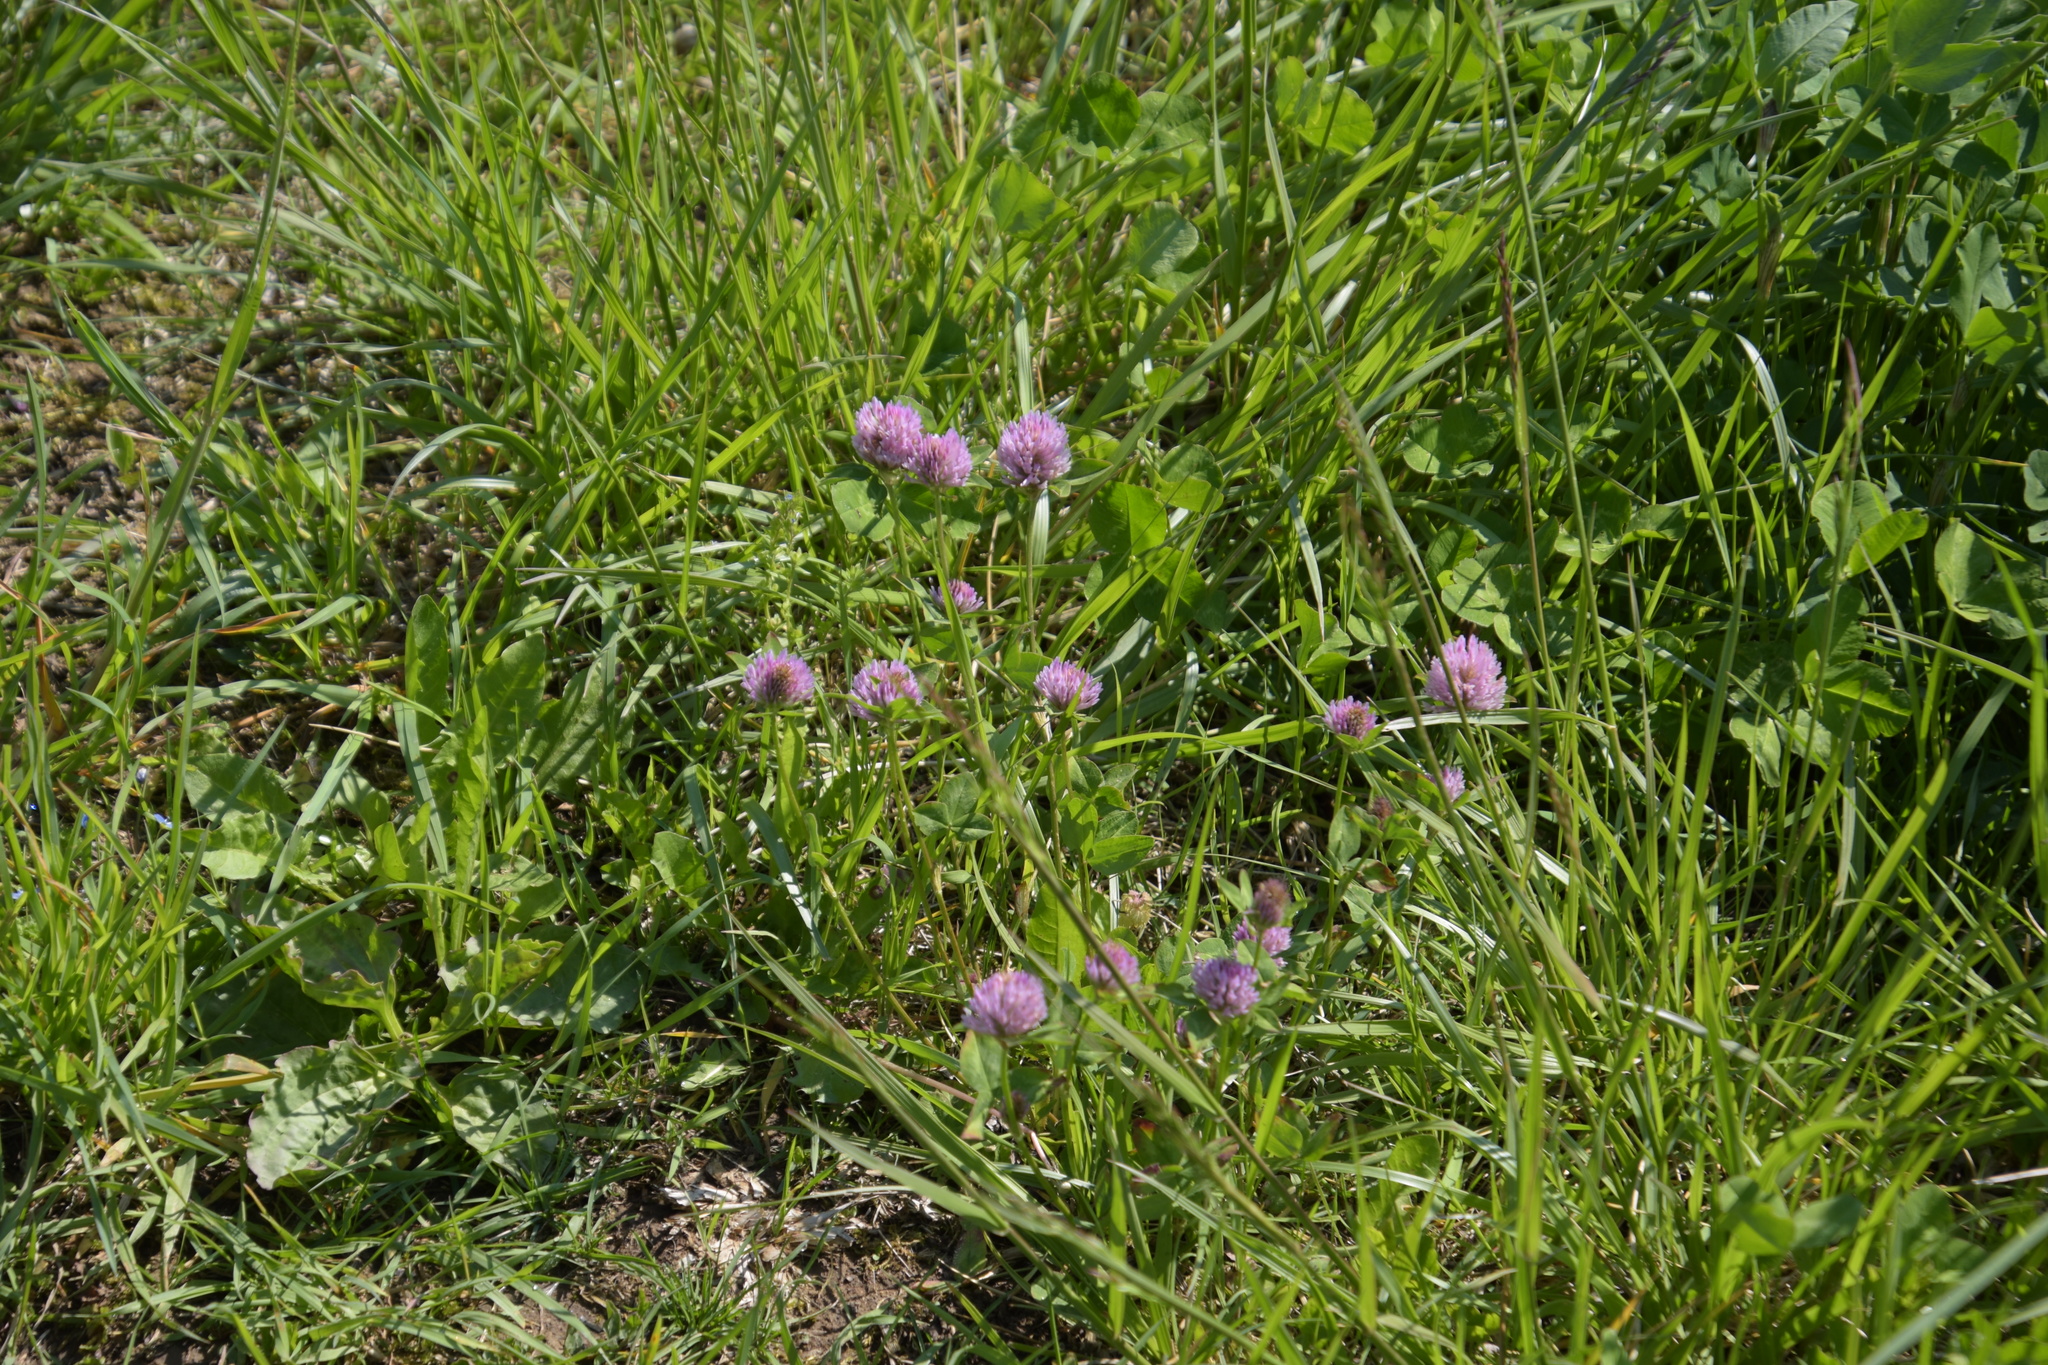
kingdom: Plantae
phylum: Tracheophyta
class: Magnoliopsida
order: Fabales
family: Fabaceae
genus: Trifolium
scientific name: Trifolium pratense
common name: Red clover
